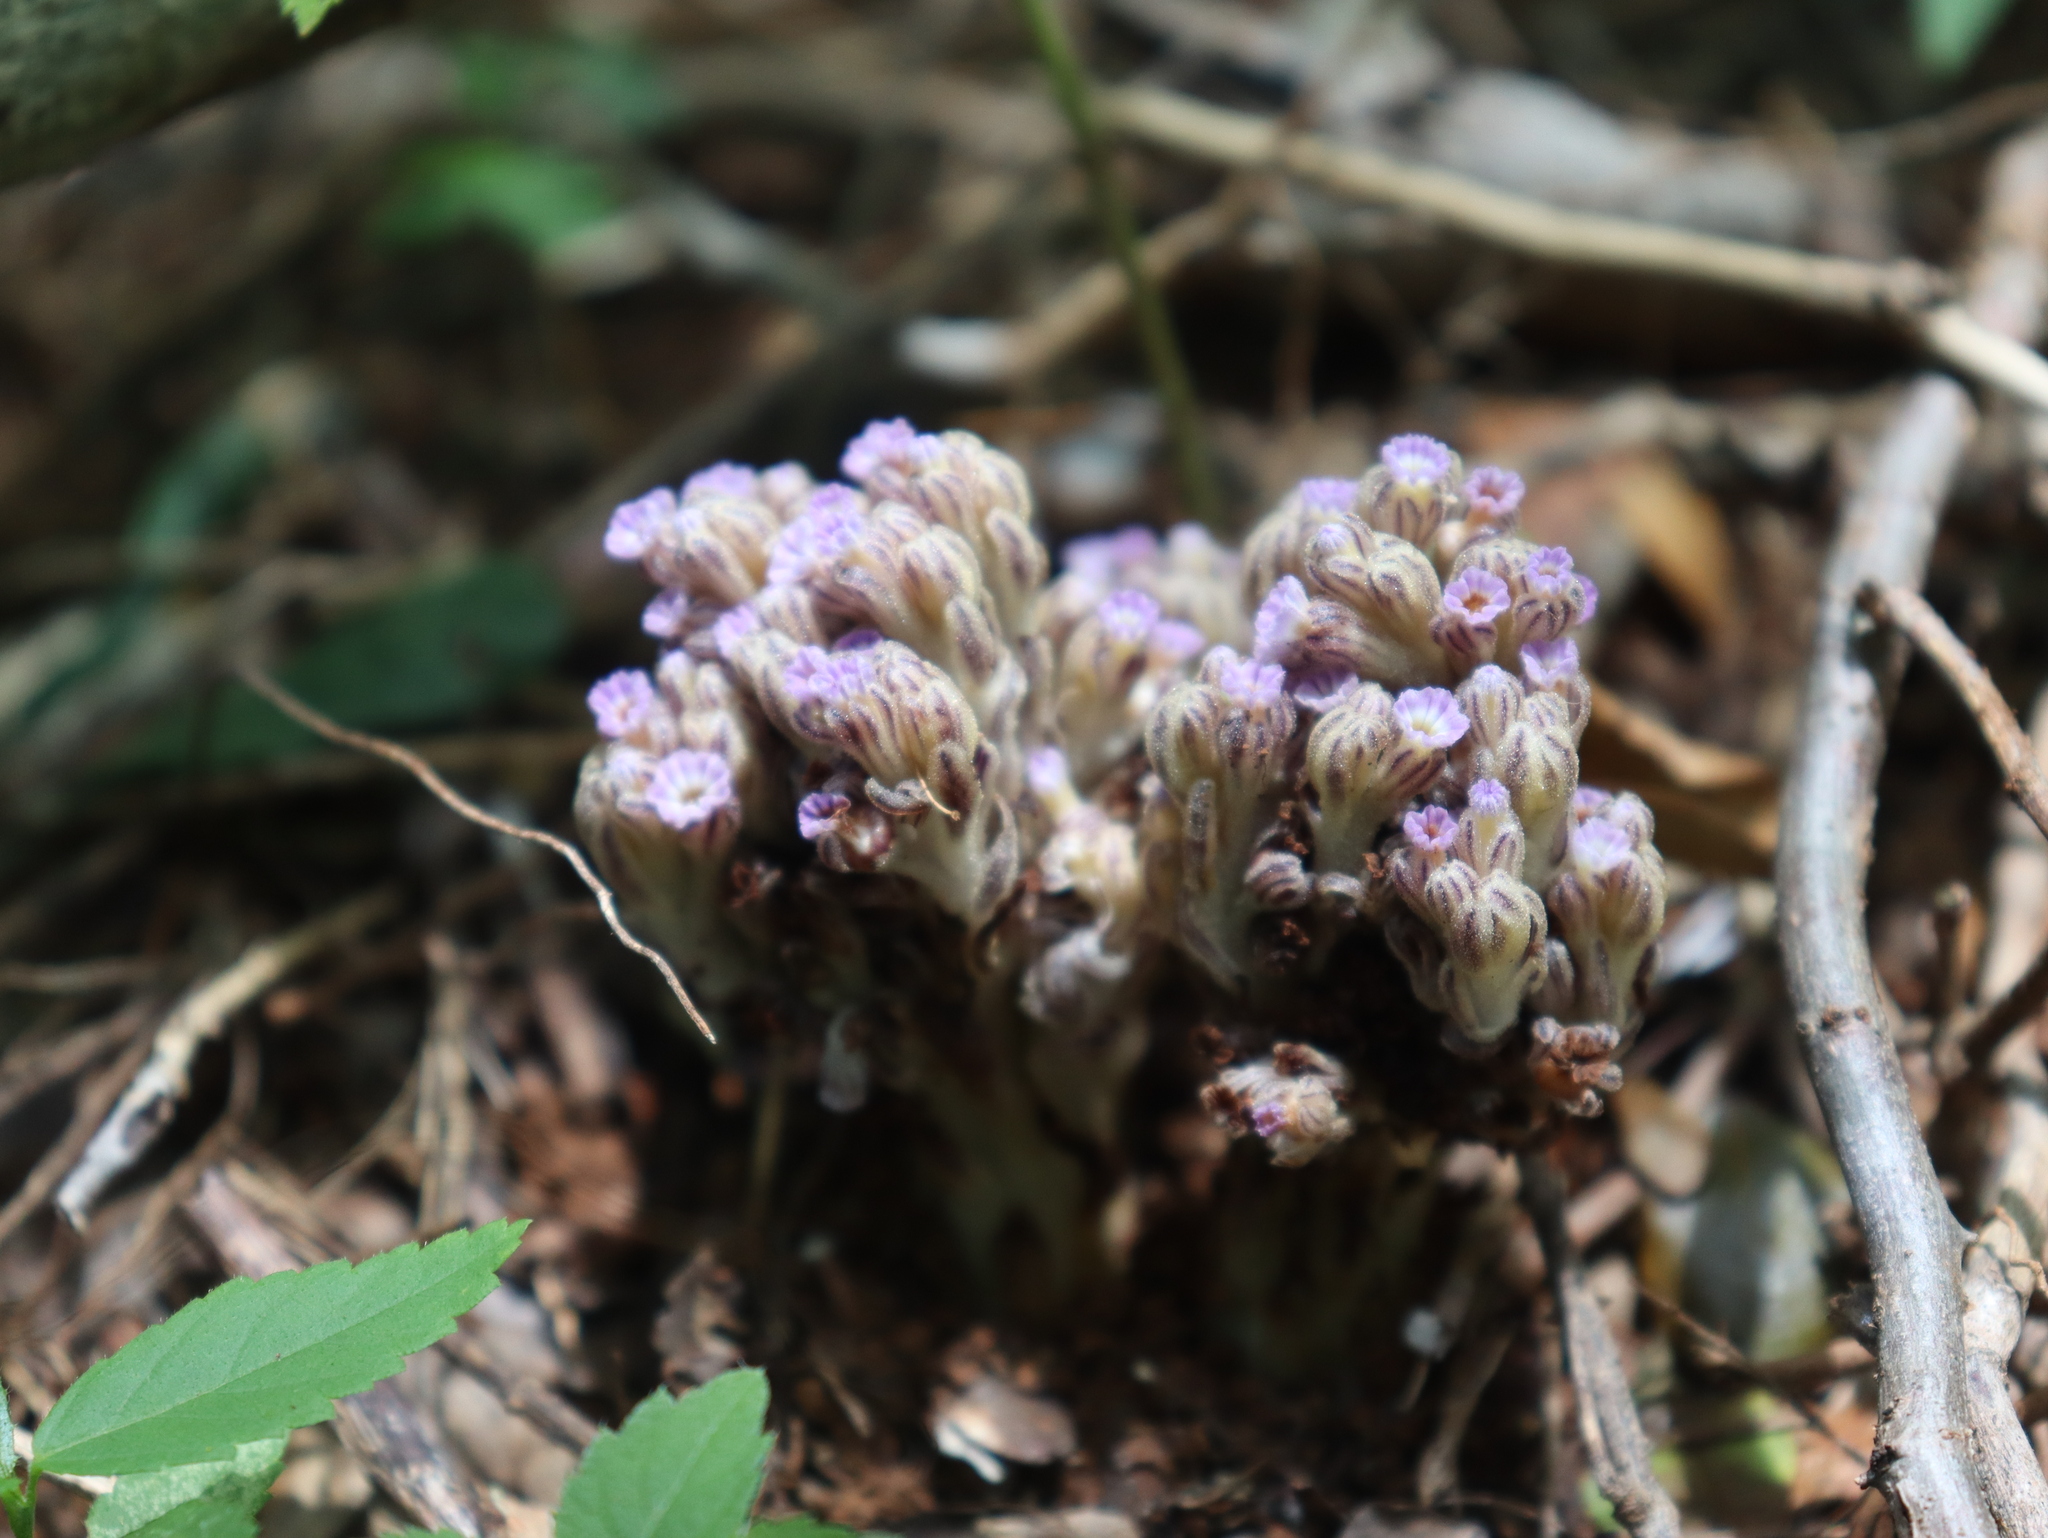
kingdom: Plantae
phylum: Tracheophyta
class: Magnoliopsida
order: Boraginales
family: Lennoaceae
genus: Lennoa
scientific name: Lennoa madreporoides
